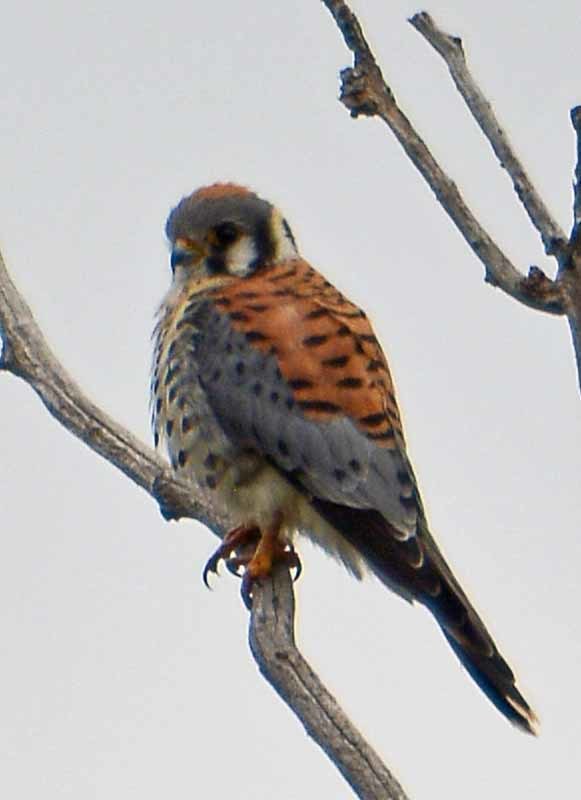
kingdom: Animalia
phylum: Chordata
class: Aves
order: Falconiformes
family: Falconidae
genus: Falco
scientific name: Falco sparverius
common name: American kestrel
